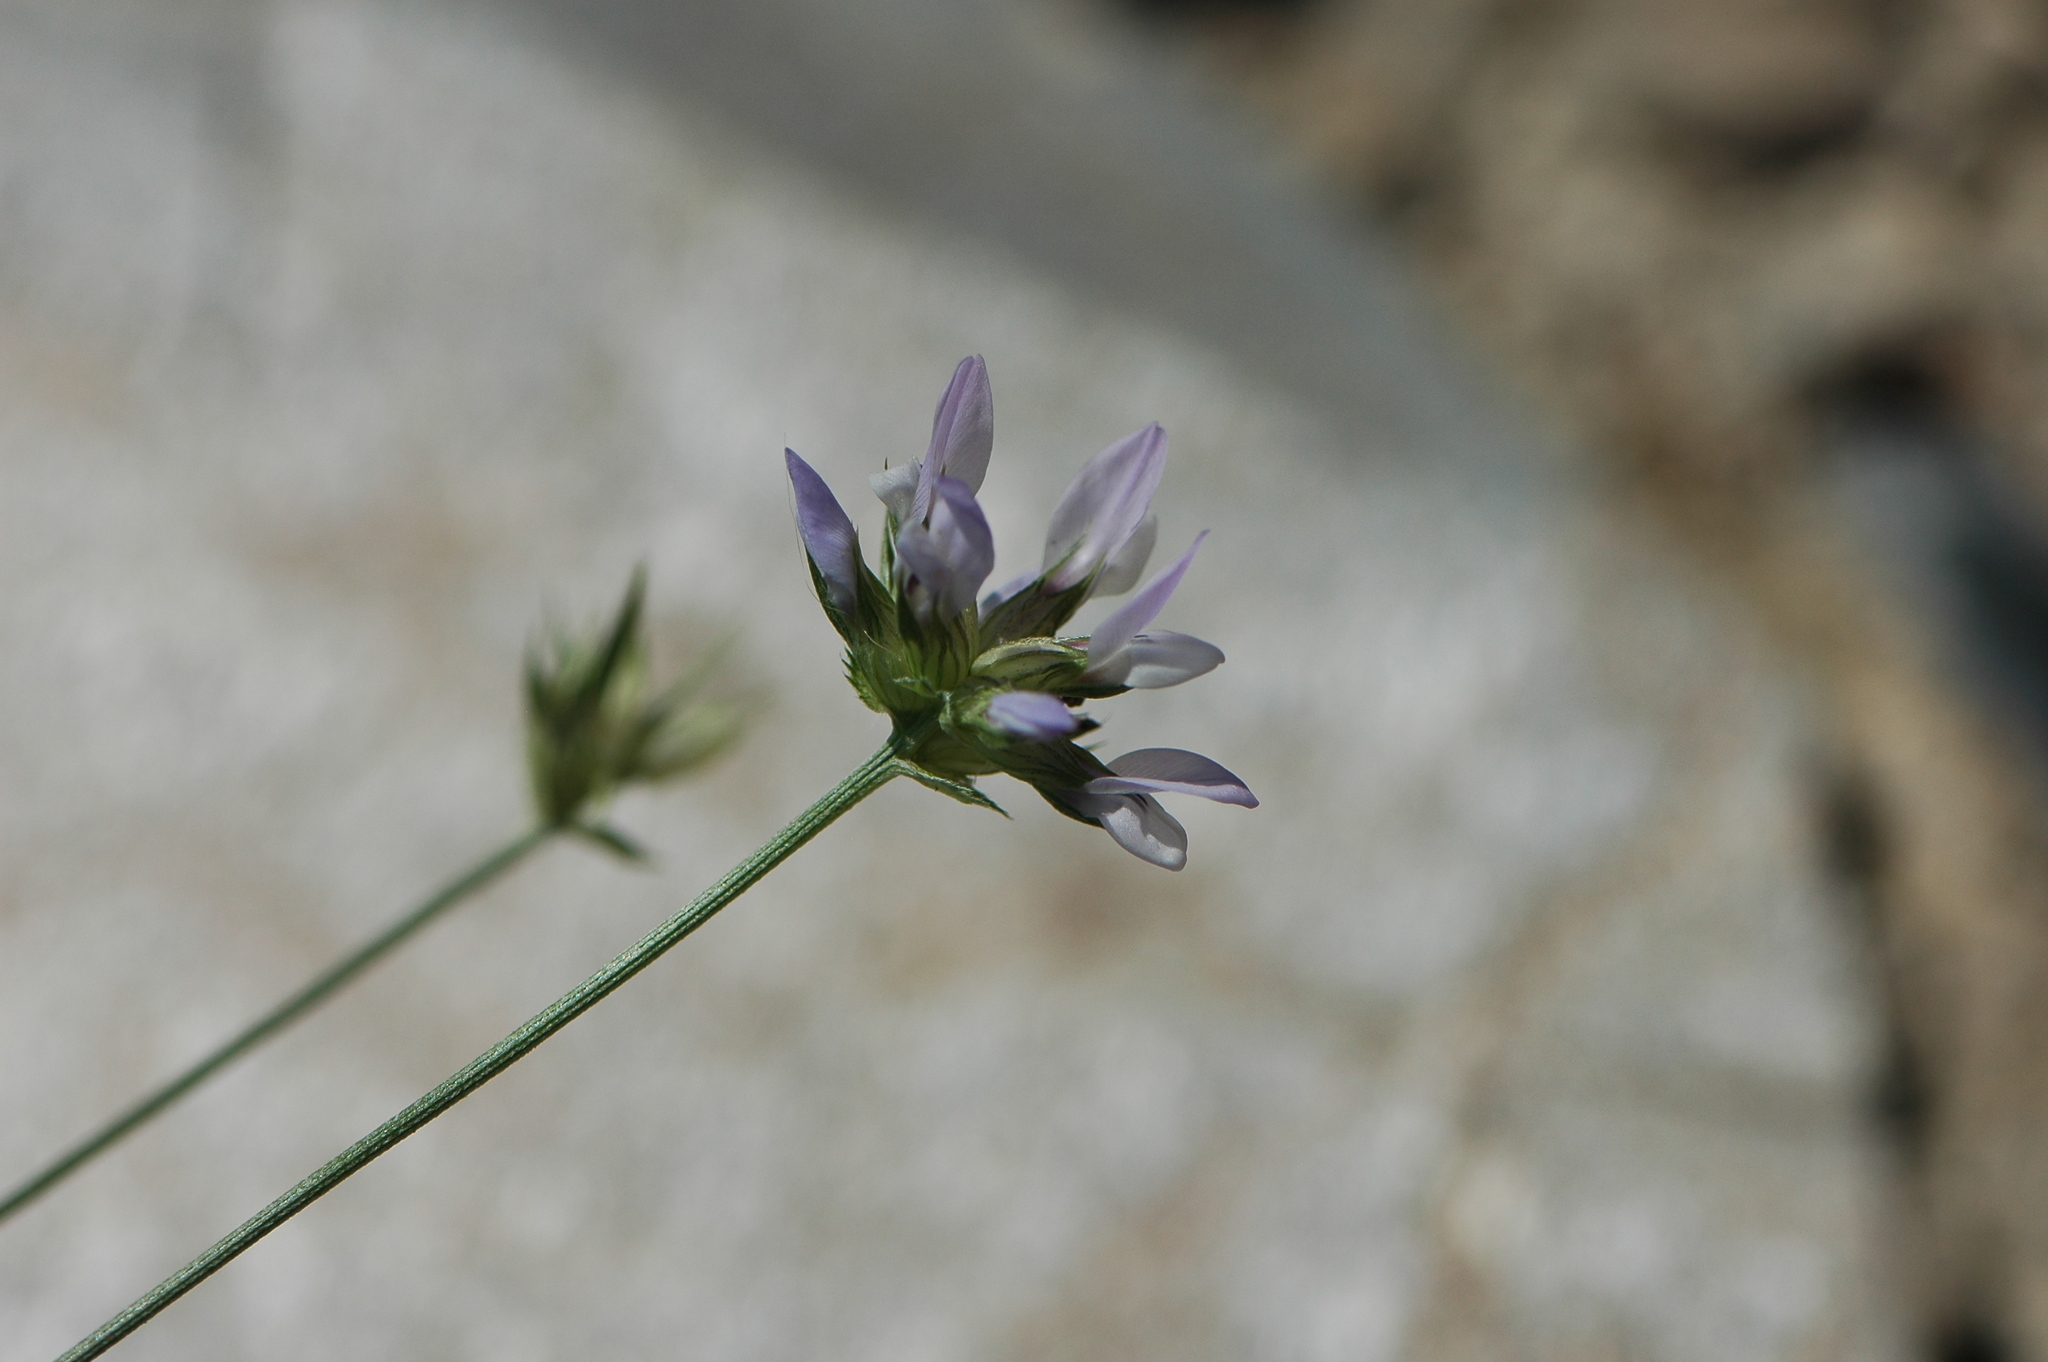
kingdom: Plantae
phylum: Tracheophyta
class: Magnoliopsida
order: Fabales
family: Fabaceae
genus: Bituminaria
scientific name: Bituminaria bituminosa
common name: Arabian pea
